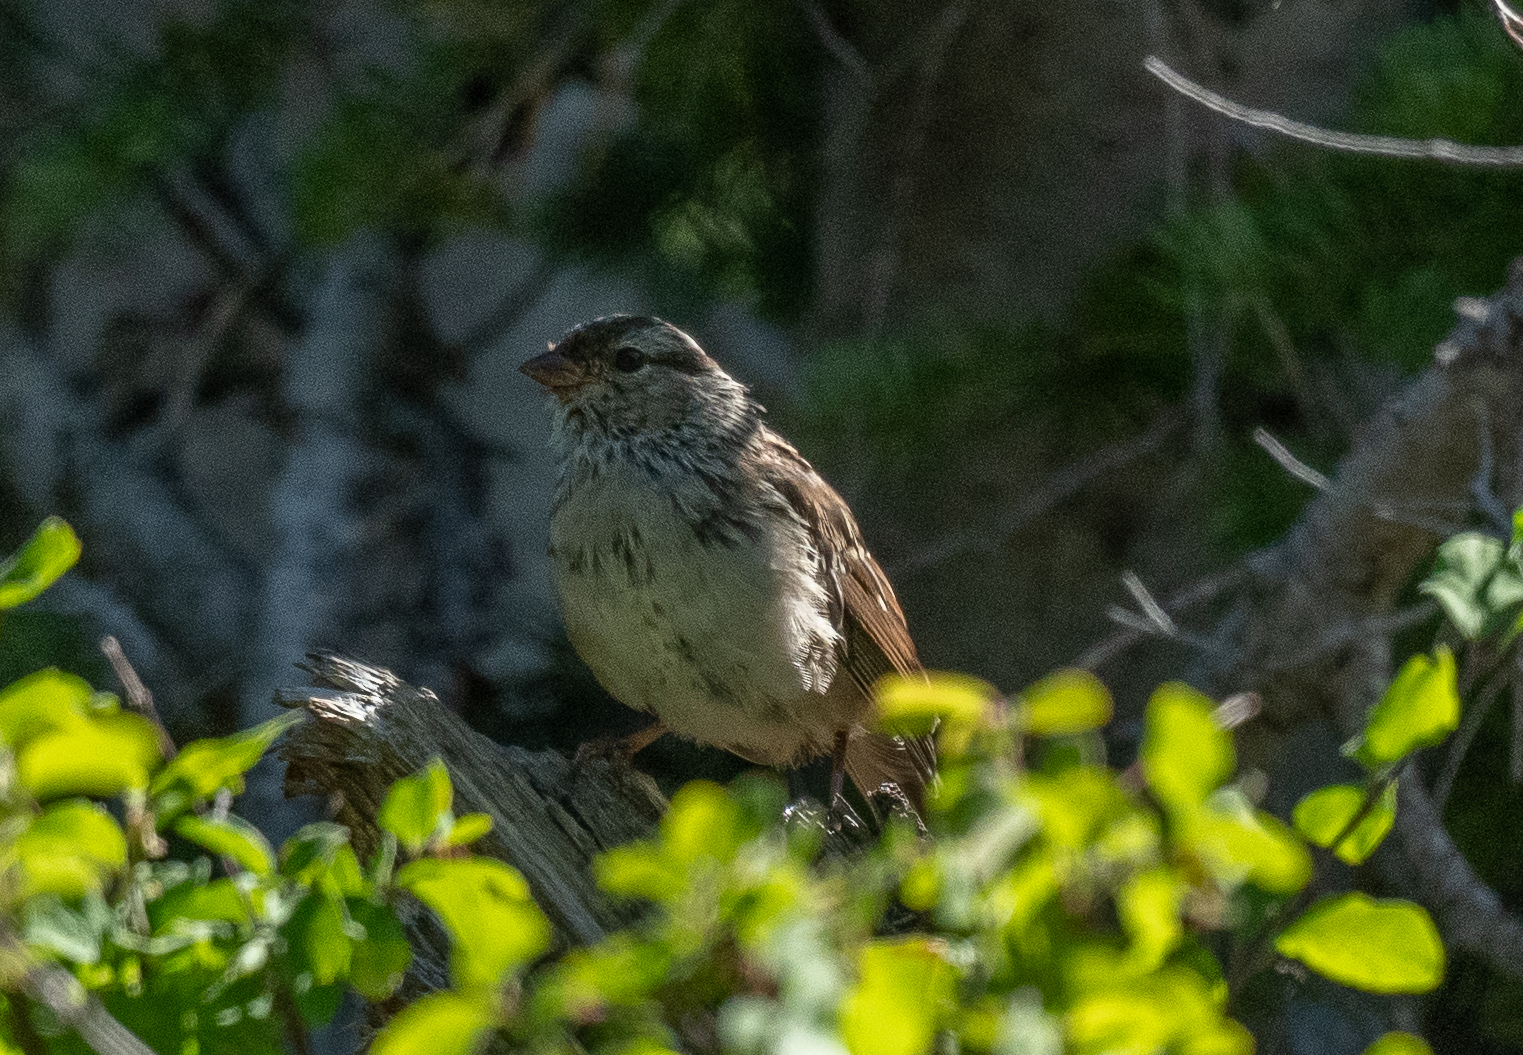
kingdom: Animalia
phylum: Chordata
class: Aves
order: Passeriformes
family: Passerellidae
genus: Zonotrichia
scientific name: Zonotrichia leucophrys
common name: White-crowned sparrow
